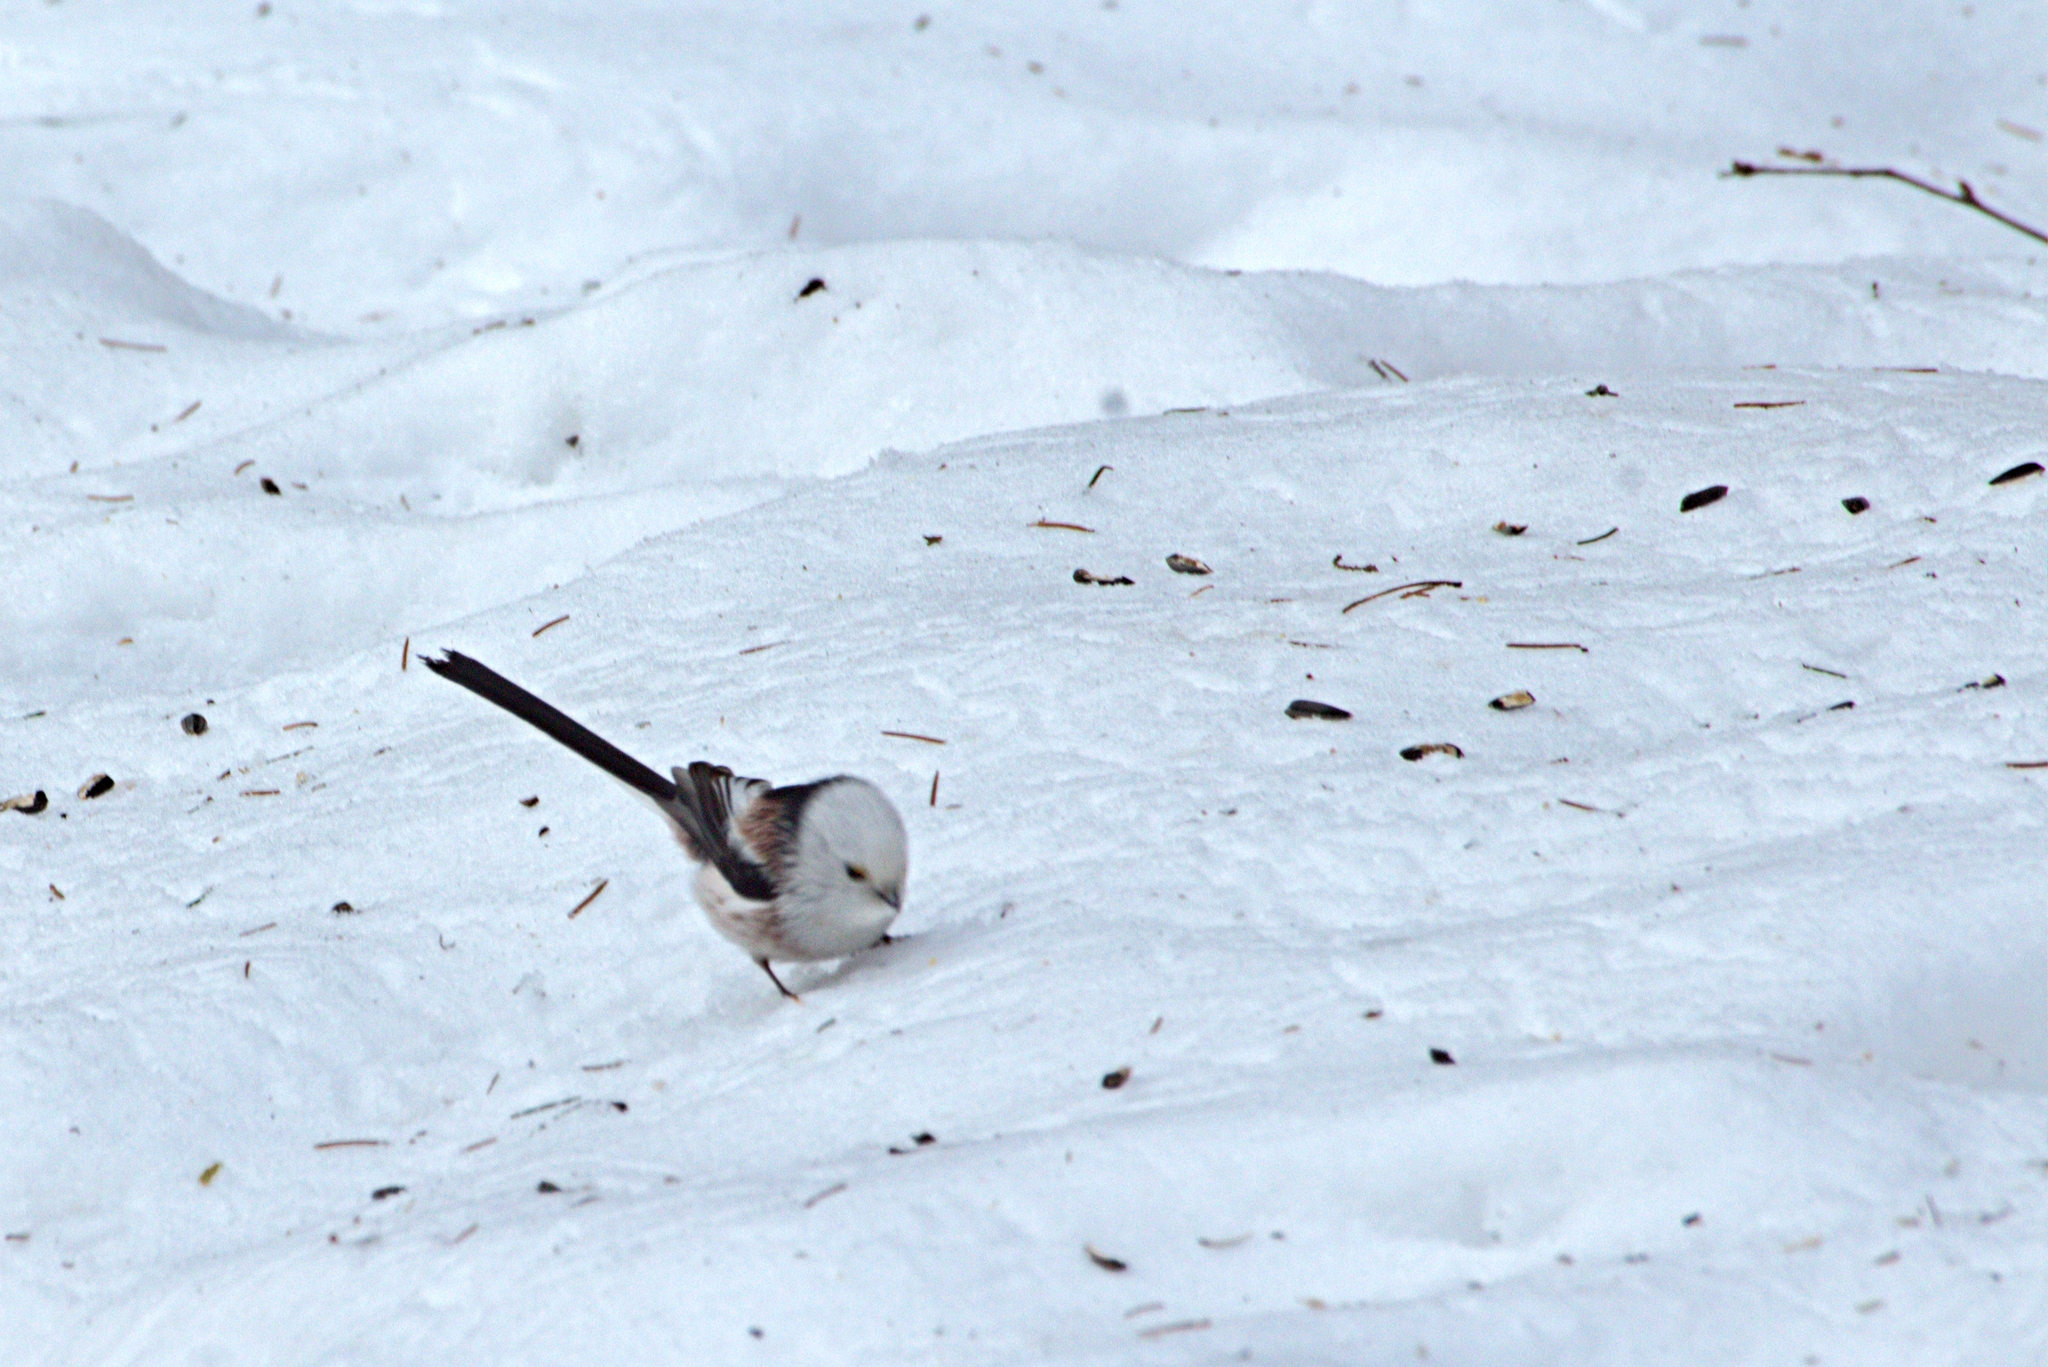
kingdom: Animalia
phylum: Chordata
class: Aves
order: Passeriformes
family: Aegithalidae
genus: Aegithalos
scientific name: Aegithalos caudatus
